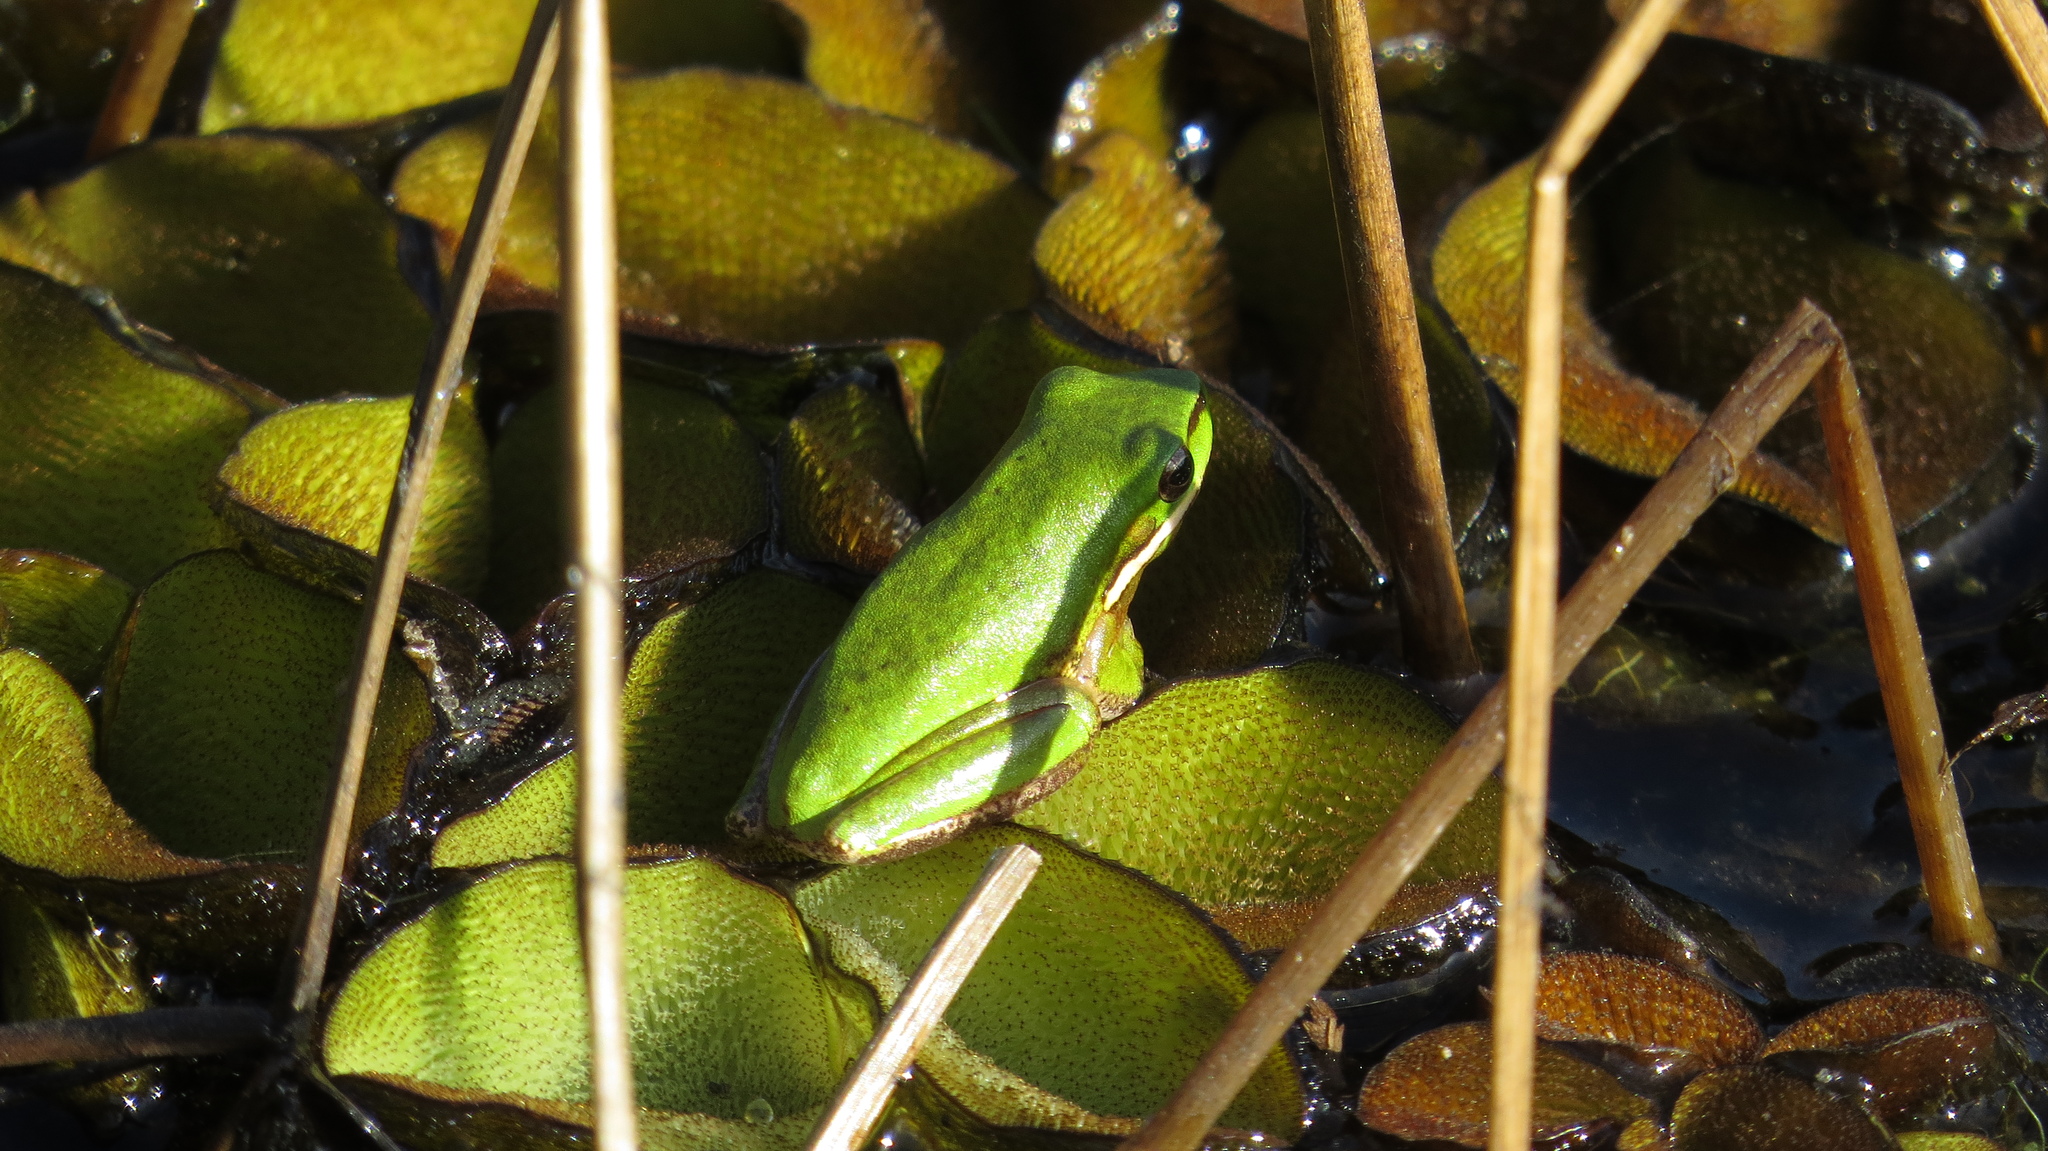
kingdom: Animalia
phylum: Chordata
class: Amphibia
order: Anura
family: Pelodryadidae
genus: Litoria
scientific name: Litoria fallax
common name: Eastern dwarf treefrog
